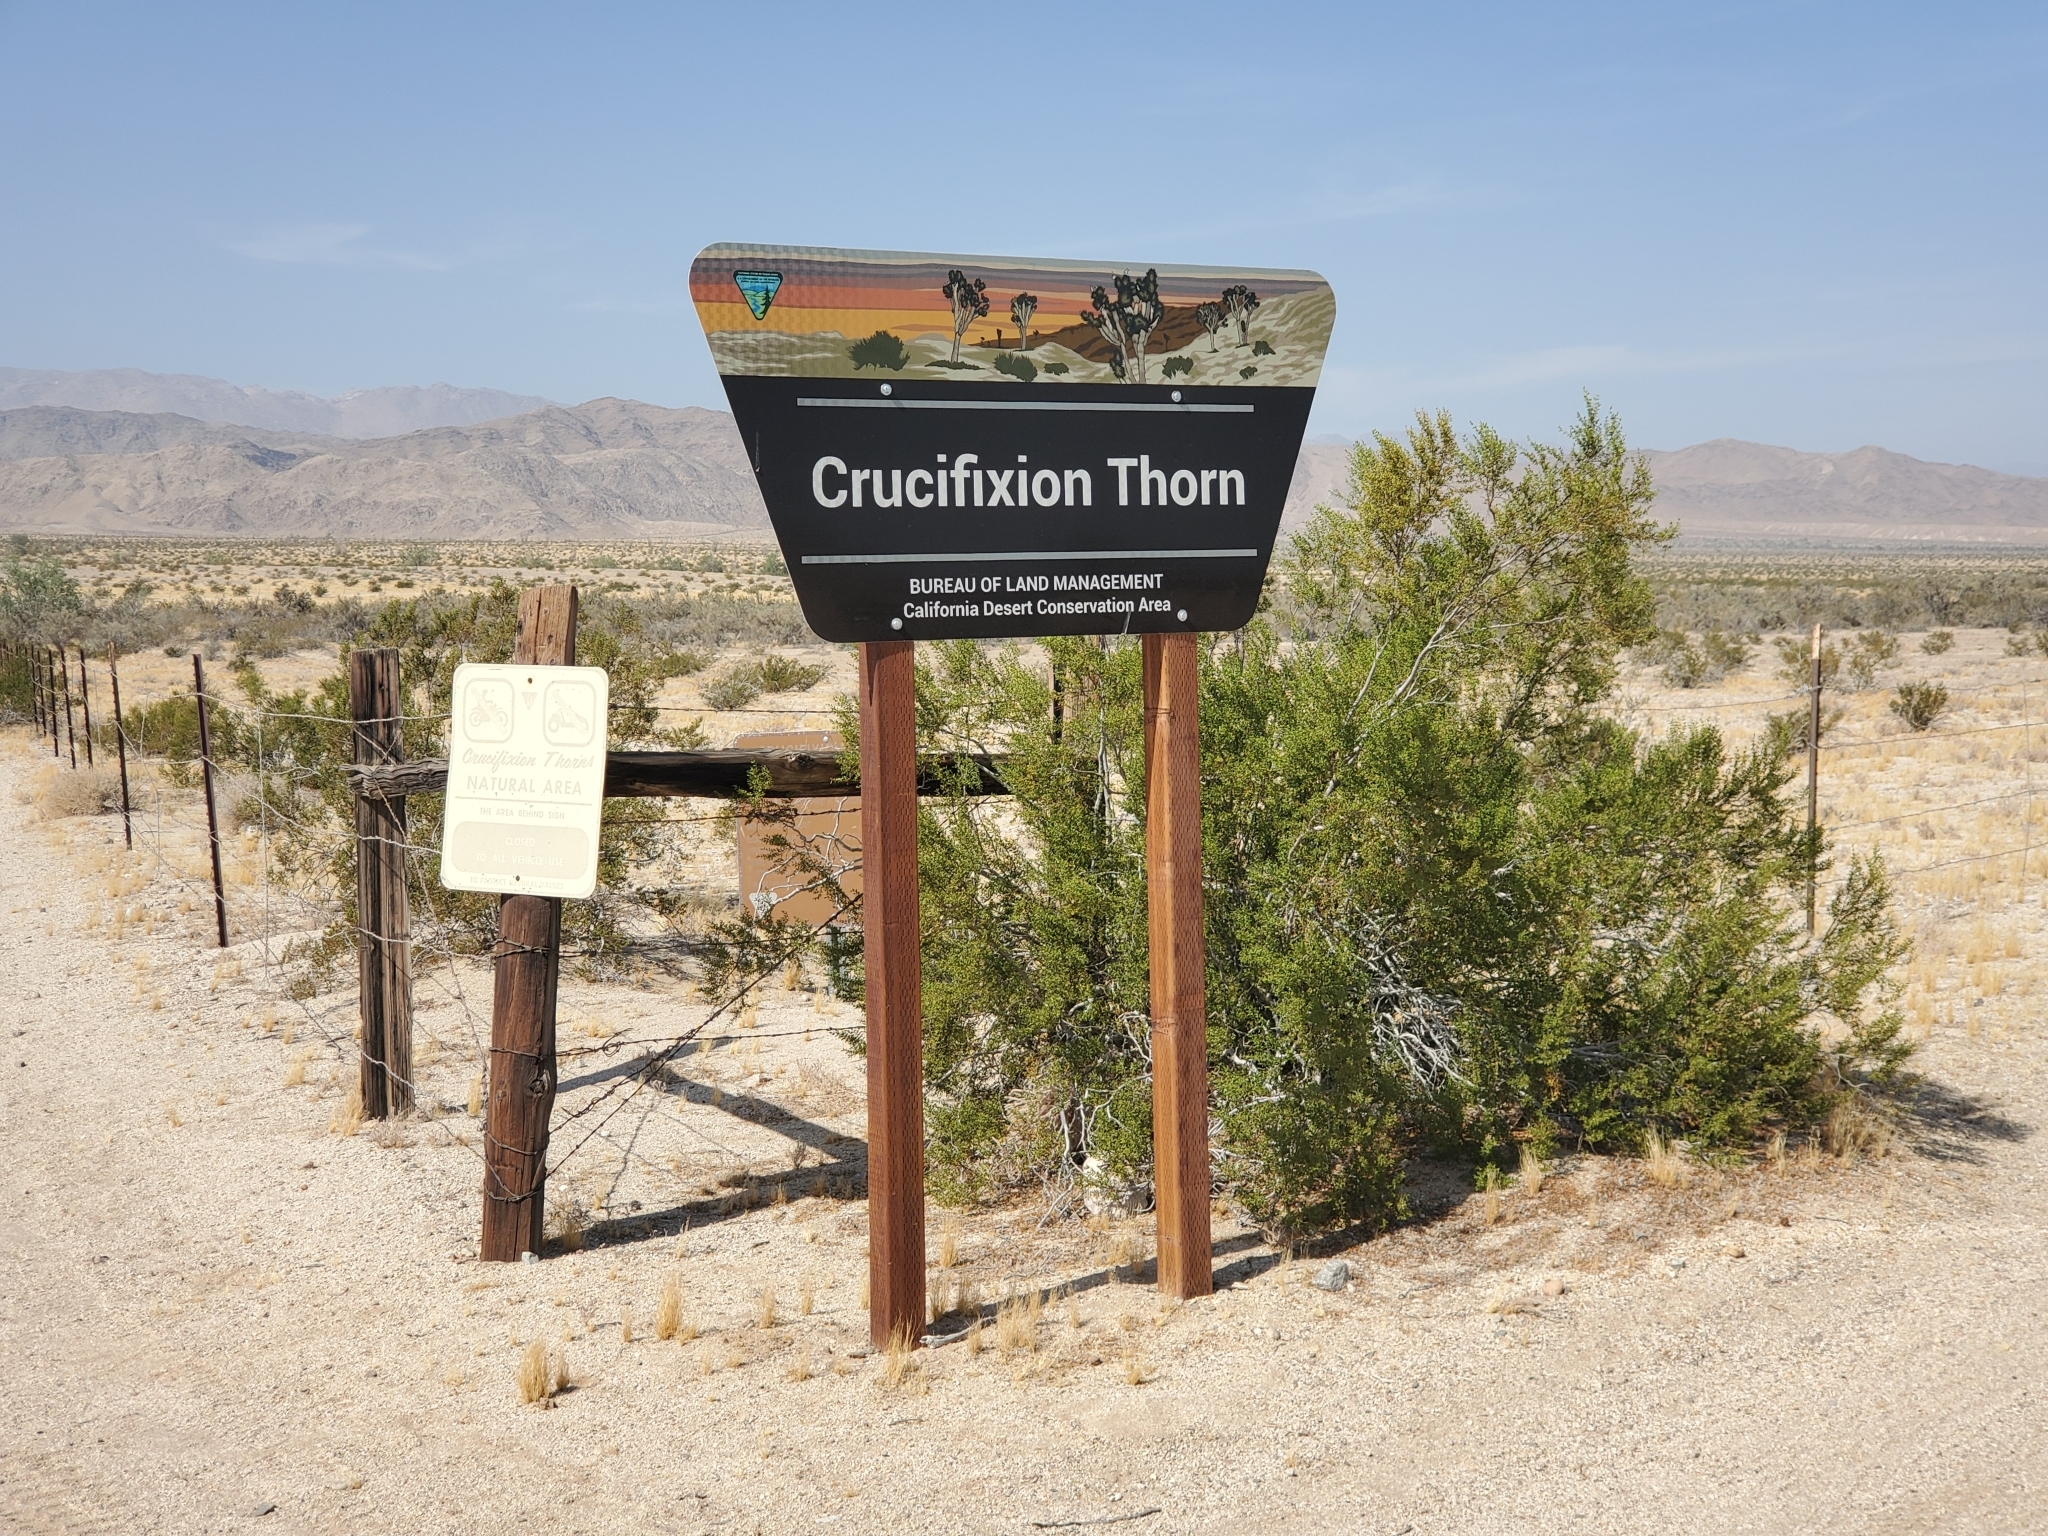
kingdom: Plantae
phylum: Tracheophyta
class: Magnoliopsida
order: Sapindales
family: Simaroubaceae
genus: Holacantha
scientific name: Holacantha emoryi
